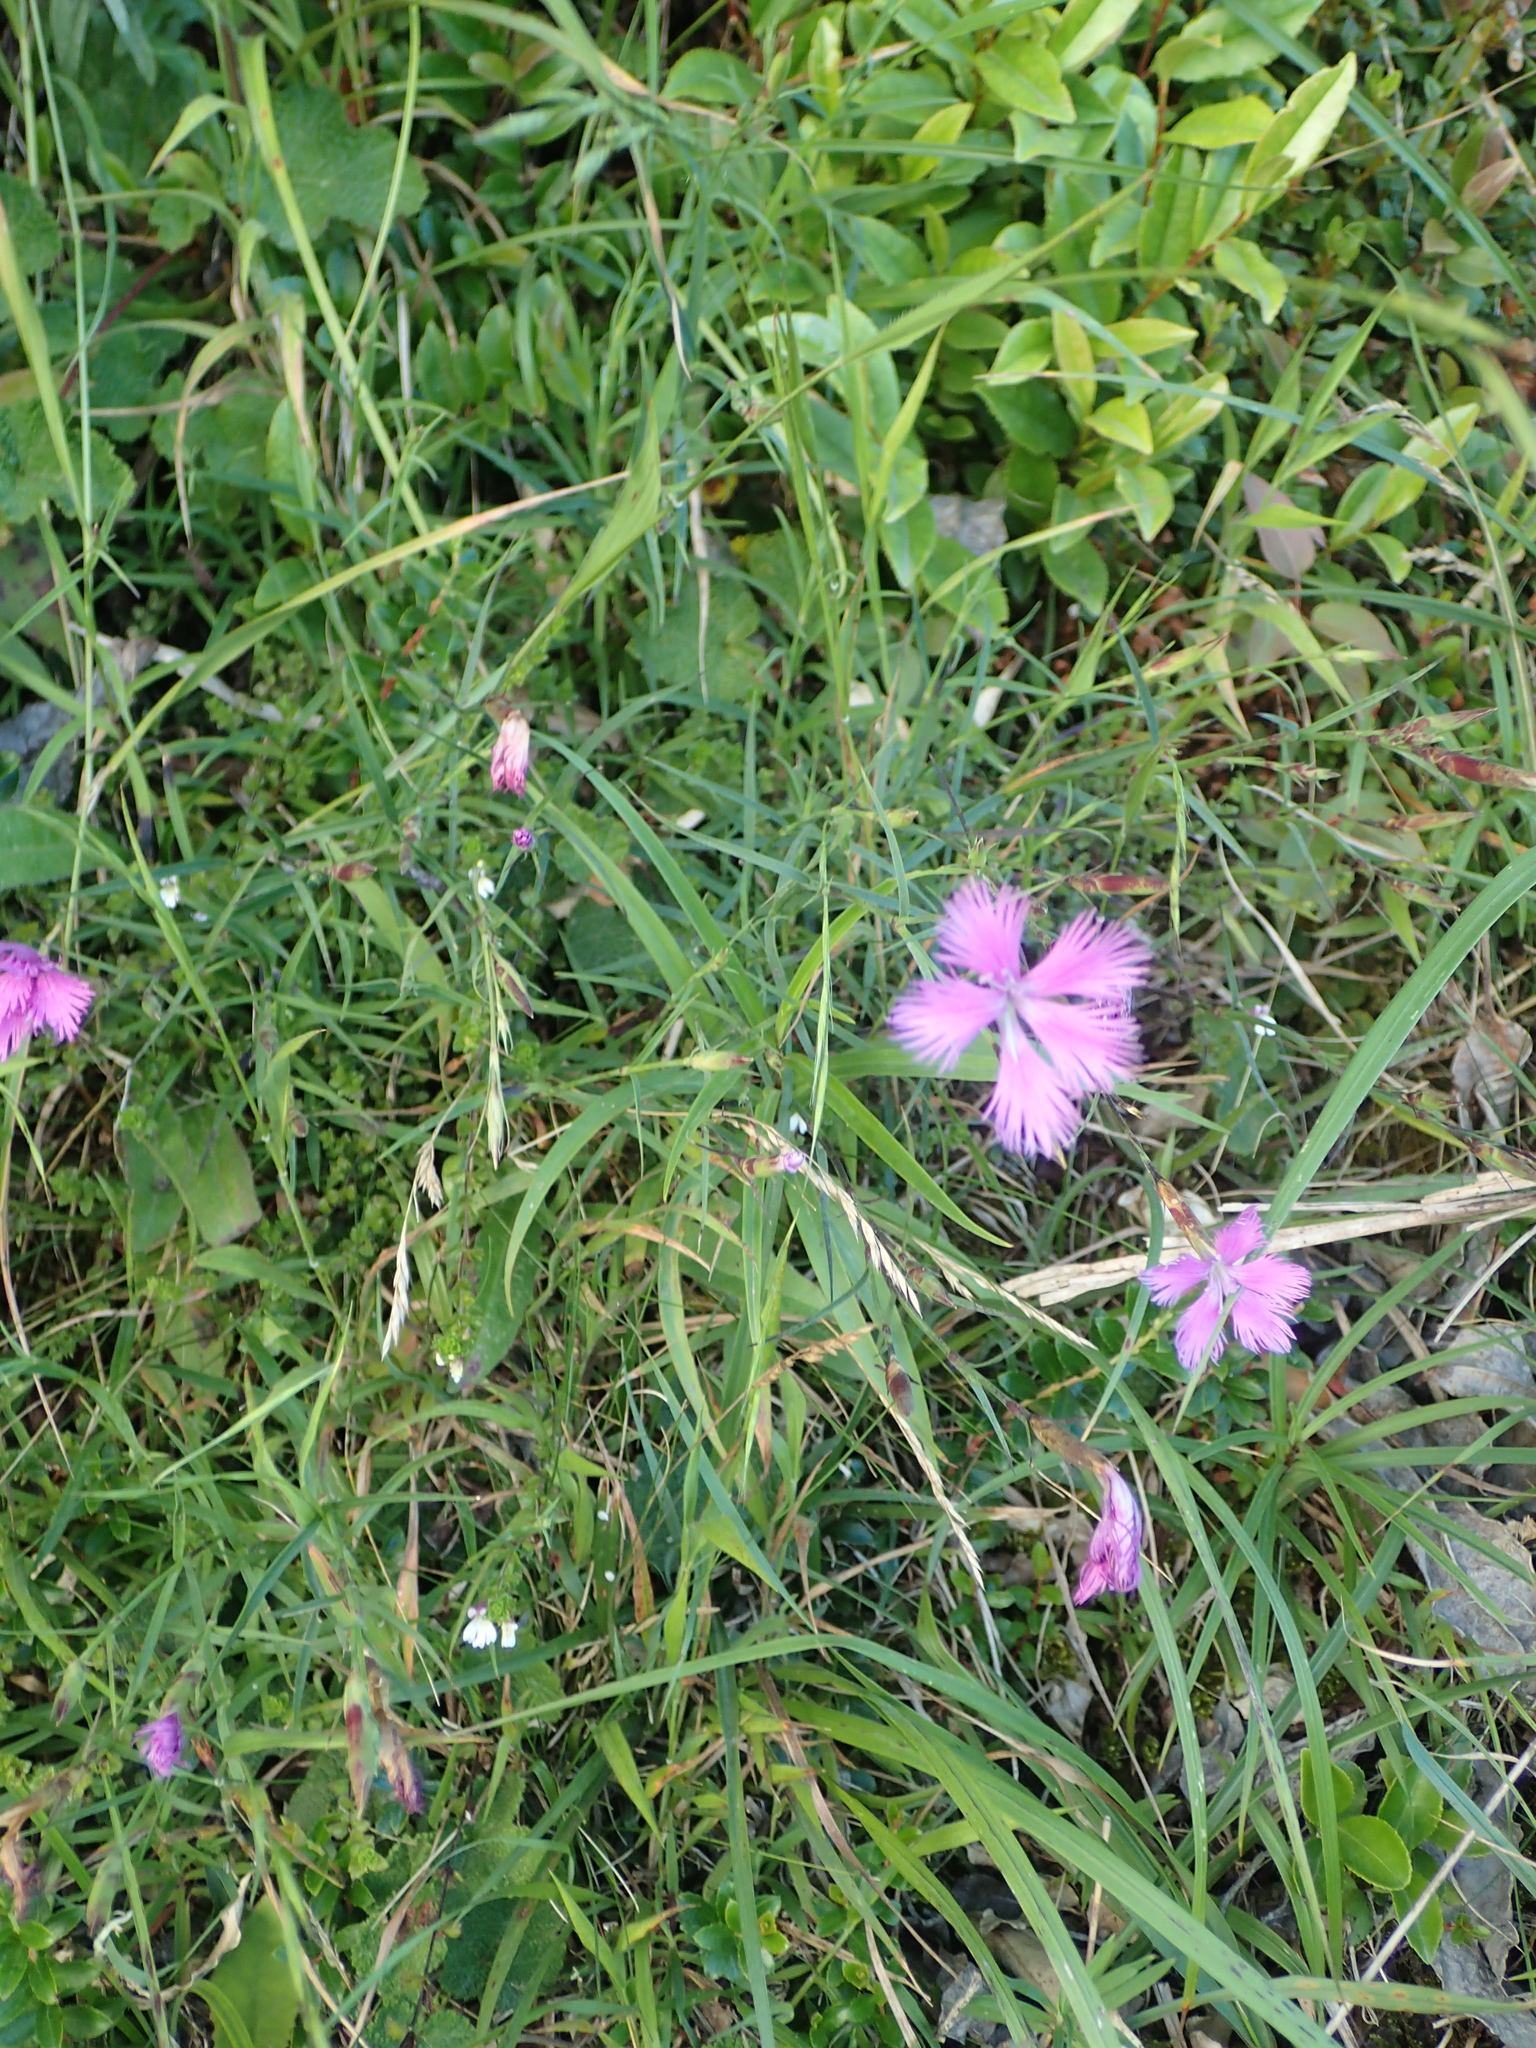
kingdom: Plantae
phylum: Tracheophyta
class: Magnoliopsida
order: Caryophyllales
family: Caryophyllaceae
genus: Dianthus
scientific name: Dianthus longicalyx
